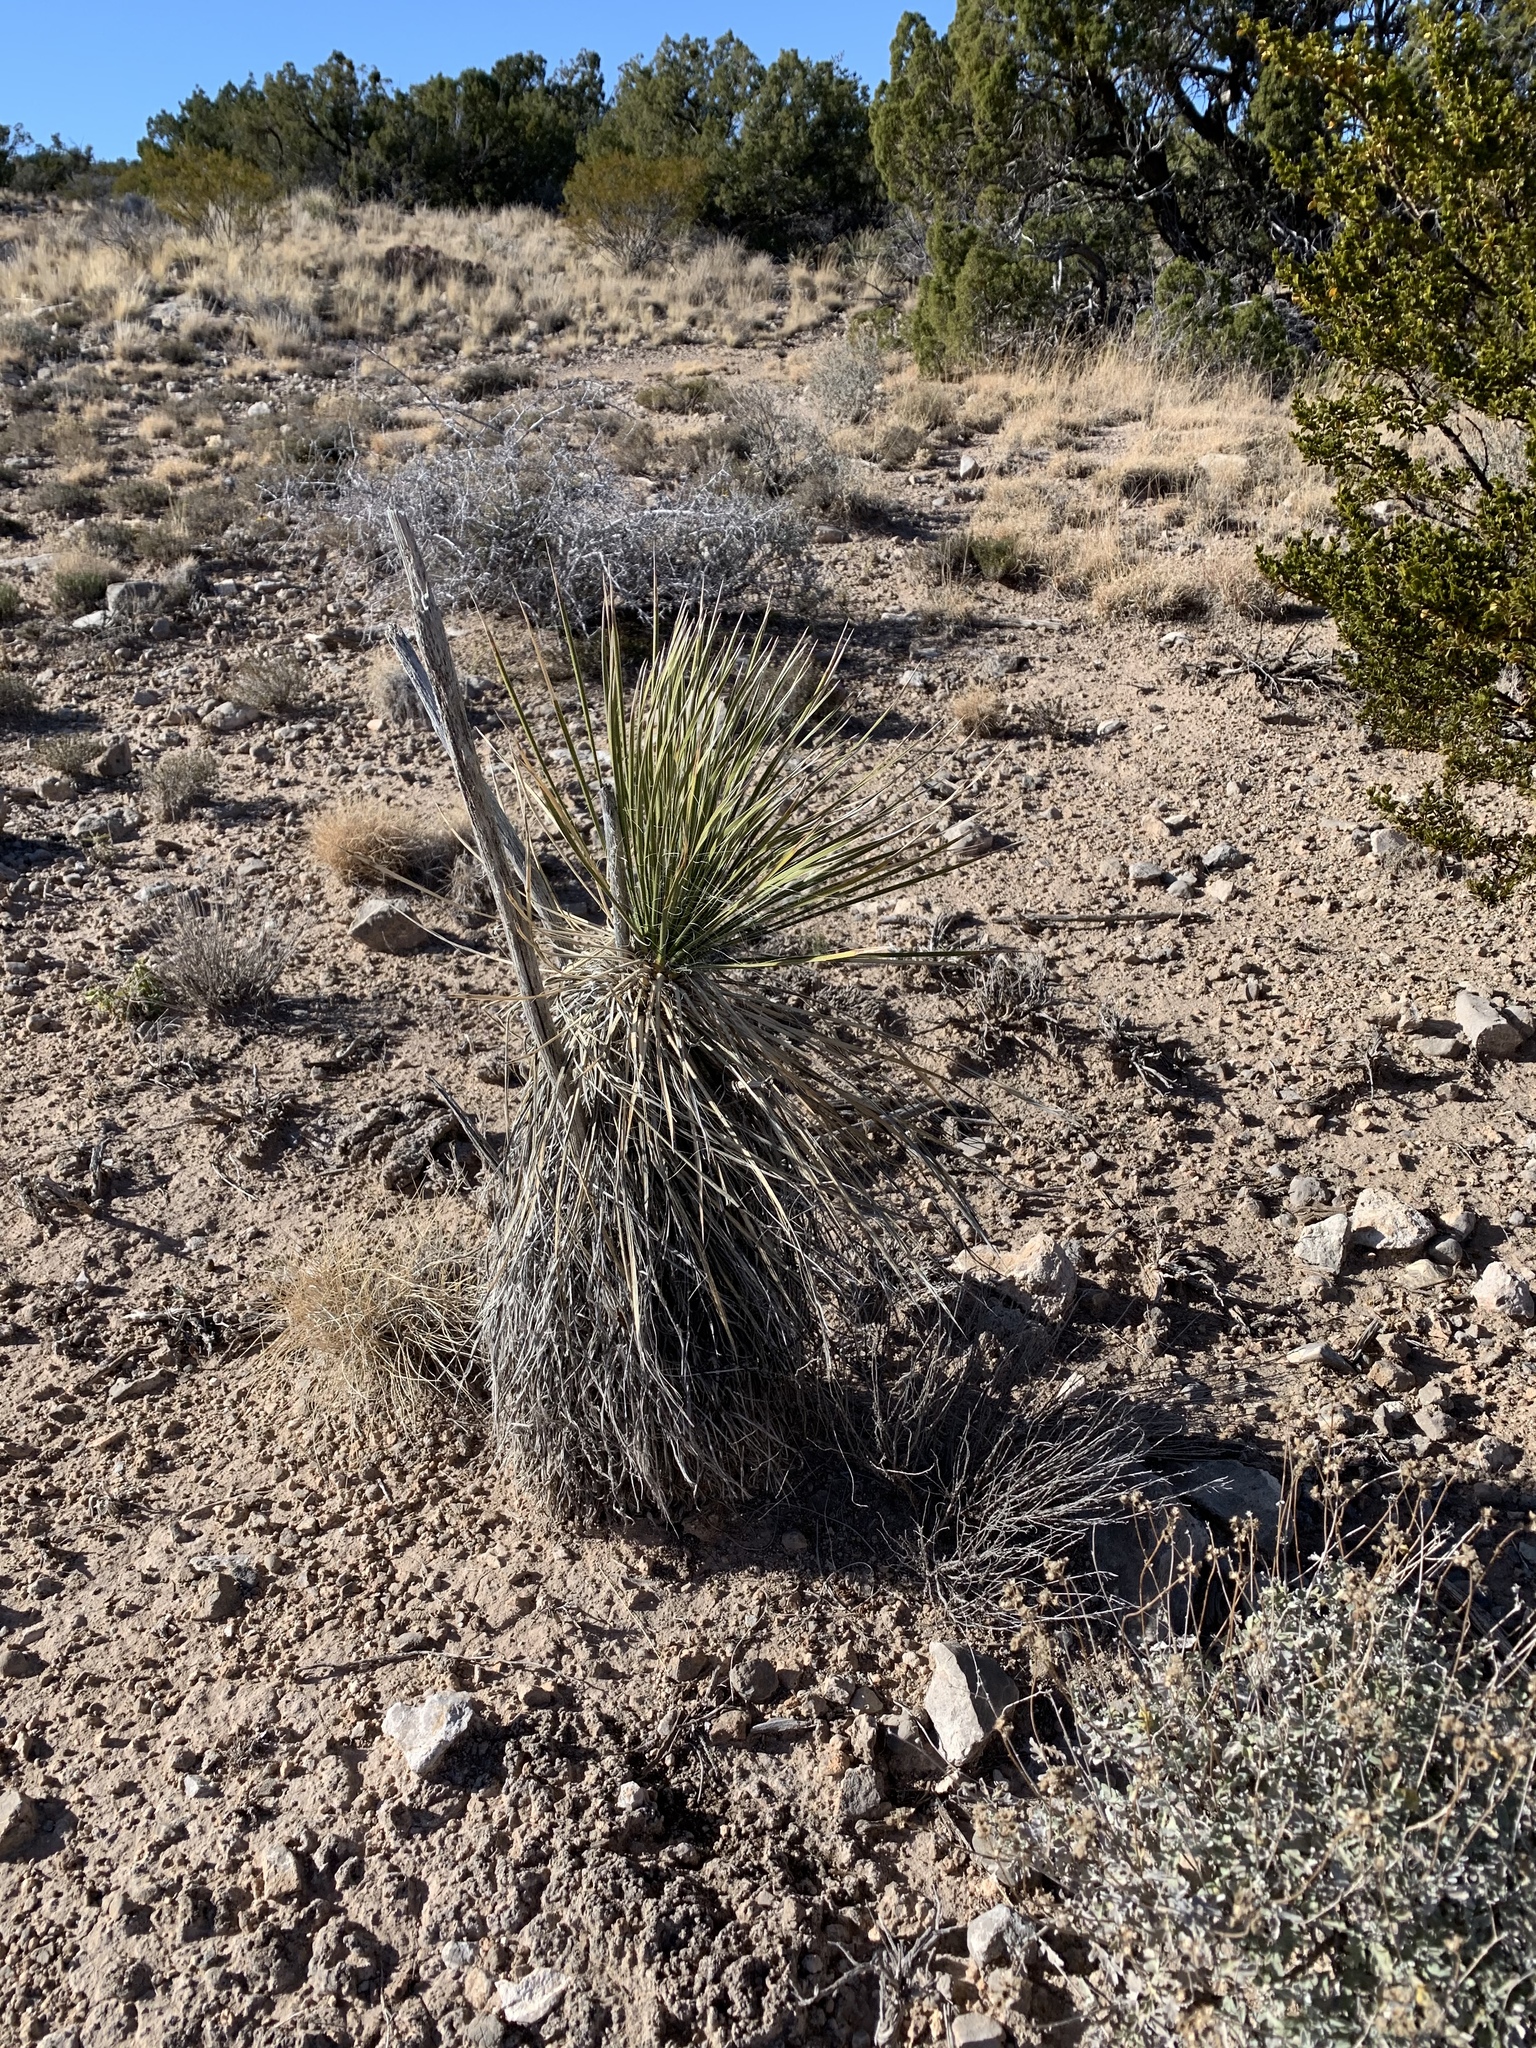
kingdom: Plantae
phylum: Tracheophyta
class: Liliopsida
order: Asparagales
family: Asparagaceae
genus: Yucca
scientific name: Yucca elata
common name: Palmella
